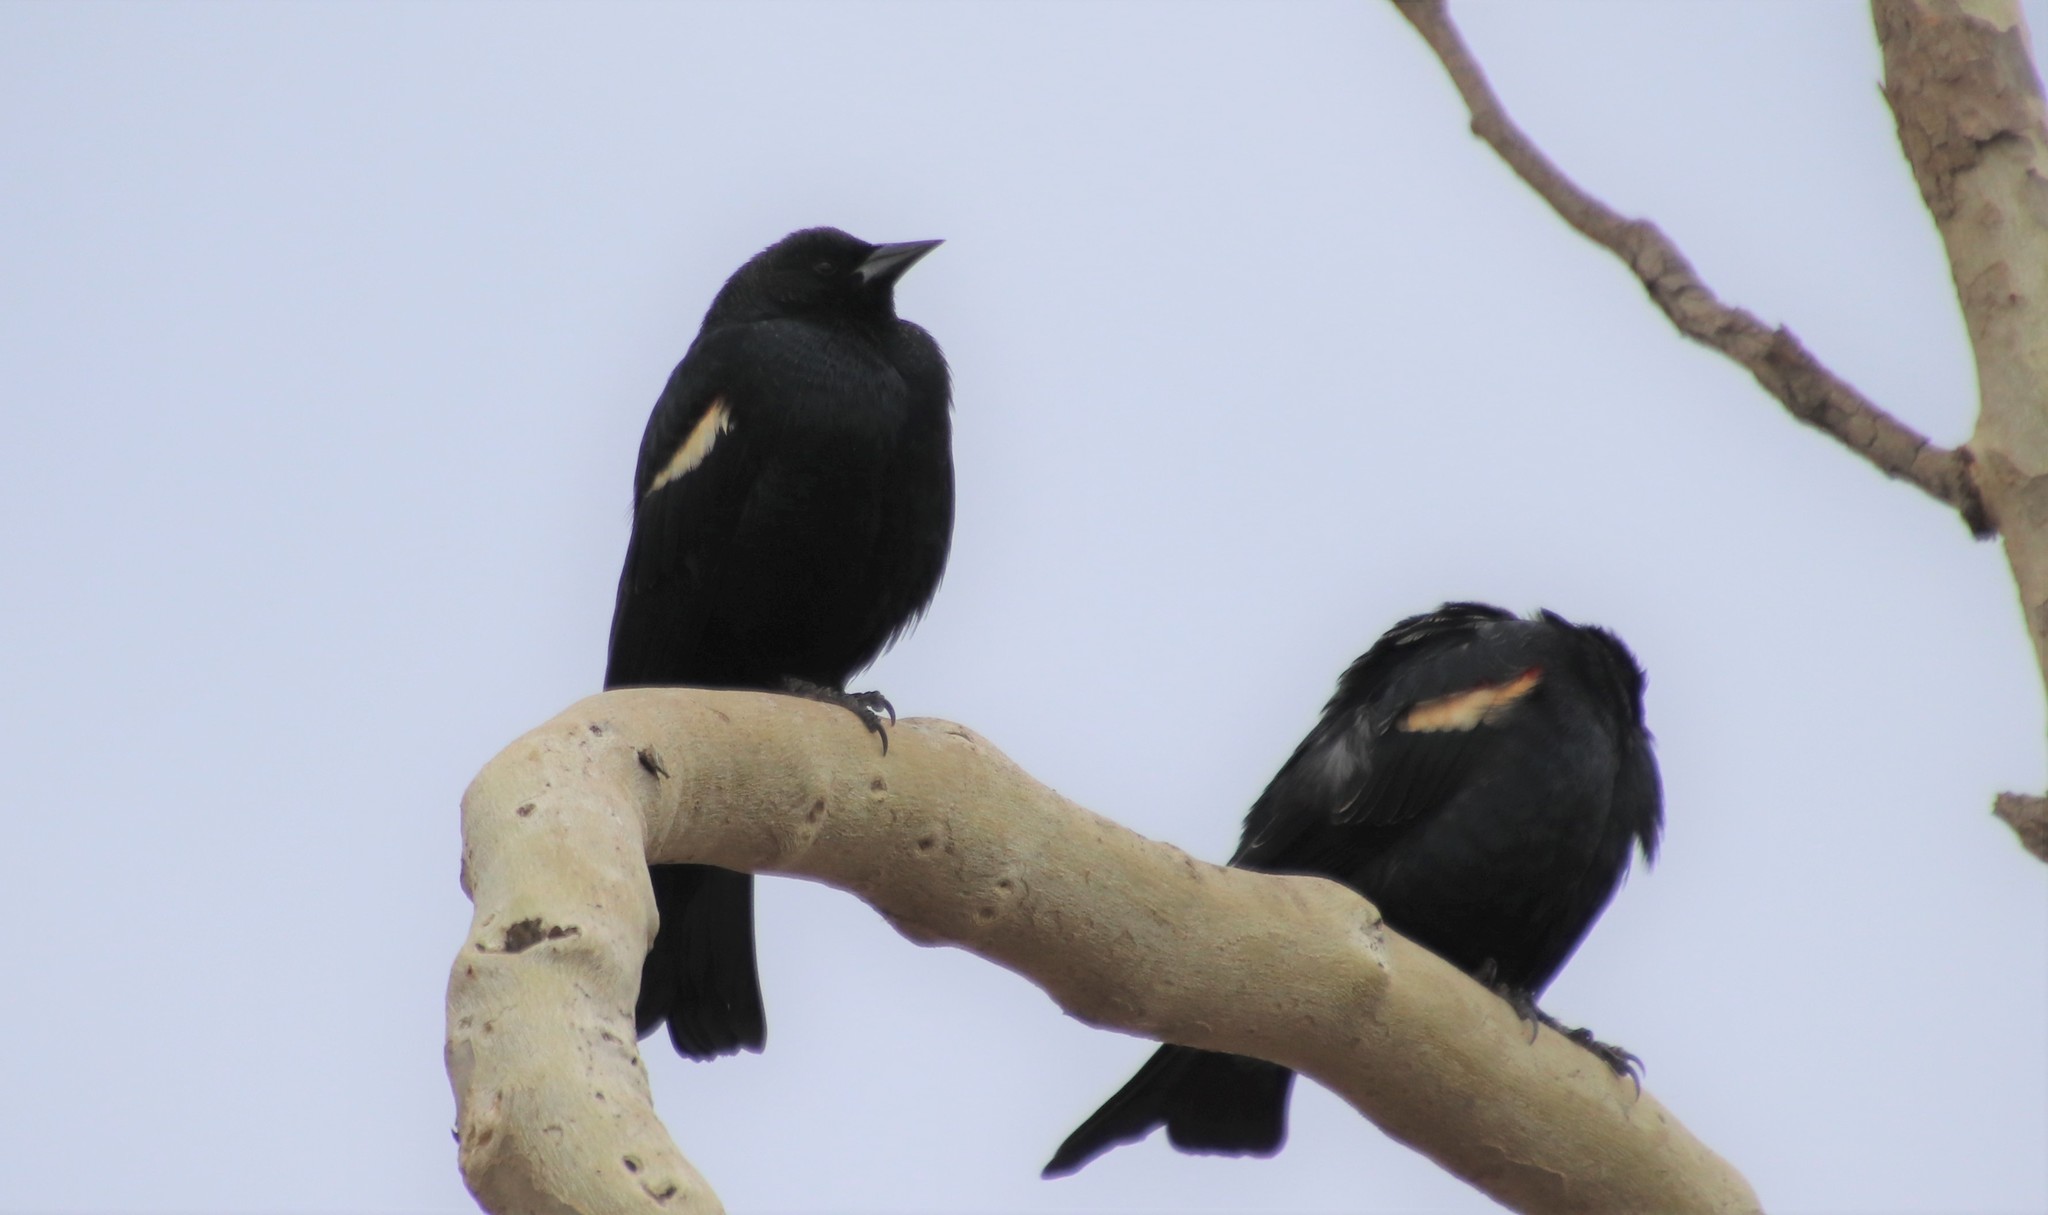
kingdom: Animalia
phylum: Chordata
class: Aves
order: Passeriformes
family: Icteridae
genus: Agelaius
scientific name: Agelaius tricolor
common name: Tricolored blackbird
